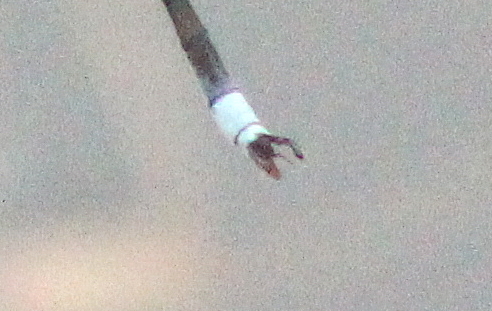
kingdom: Animalia
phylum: Arthropoda
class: Insecta
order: Odonata
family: Lestidae
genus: Lestes
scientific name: Lestes vigilax
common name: Swamp spreadwing
